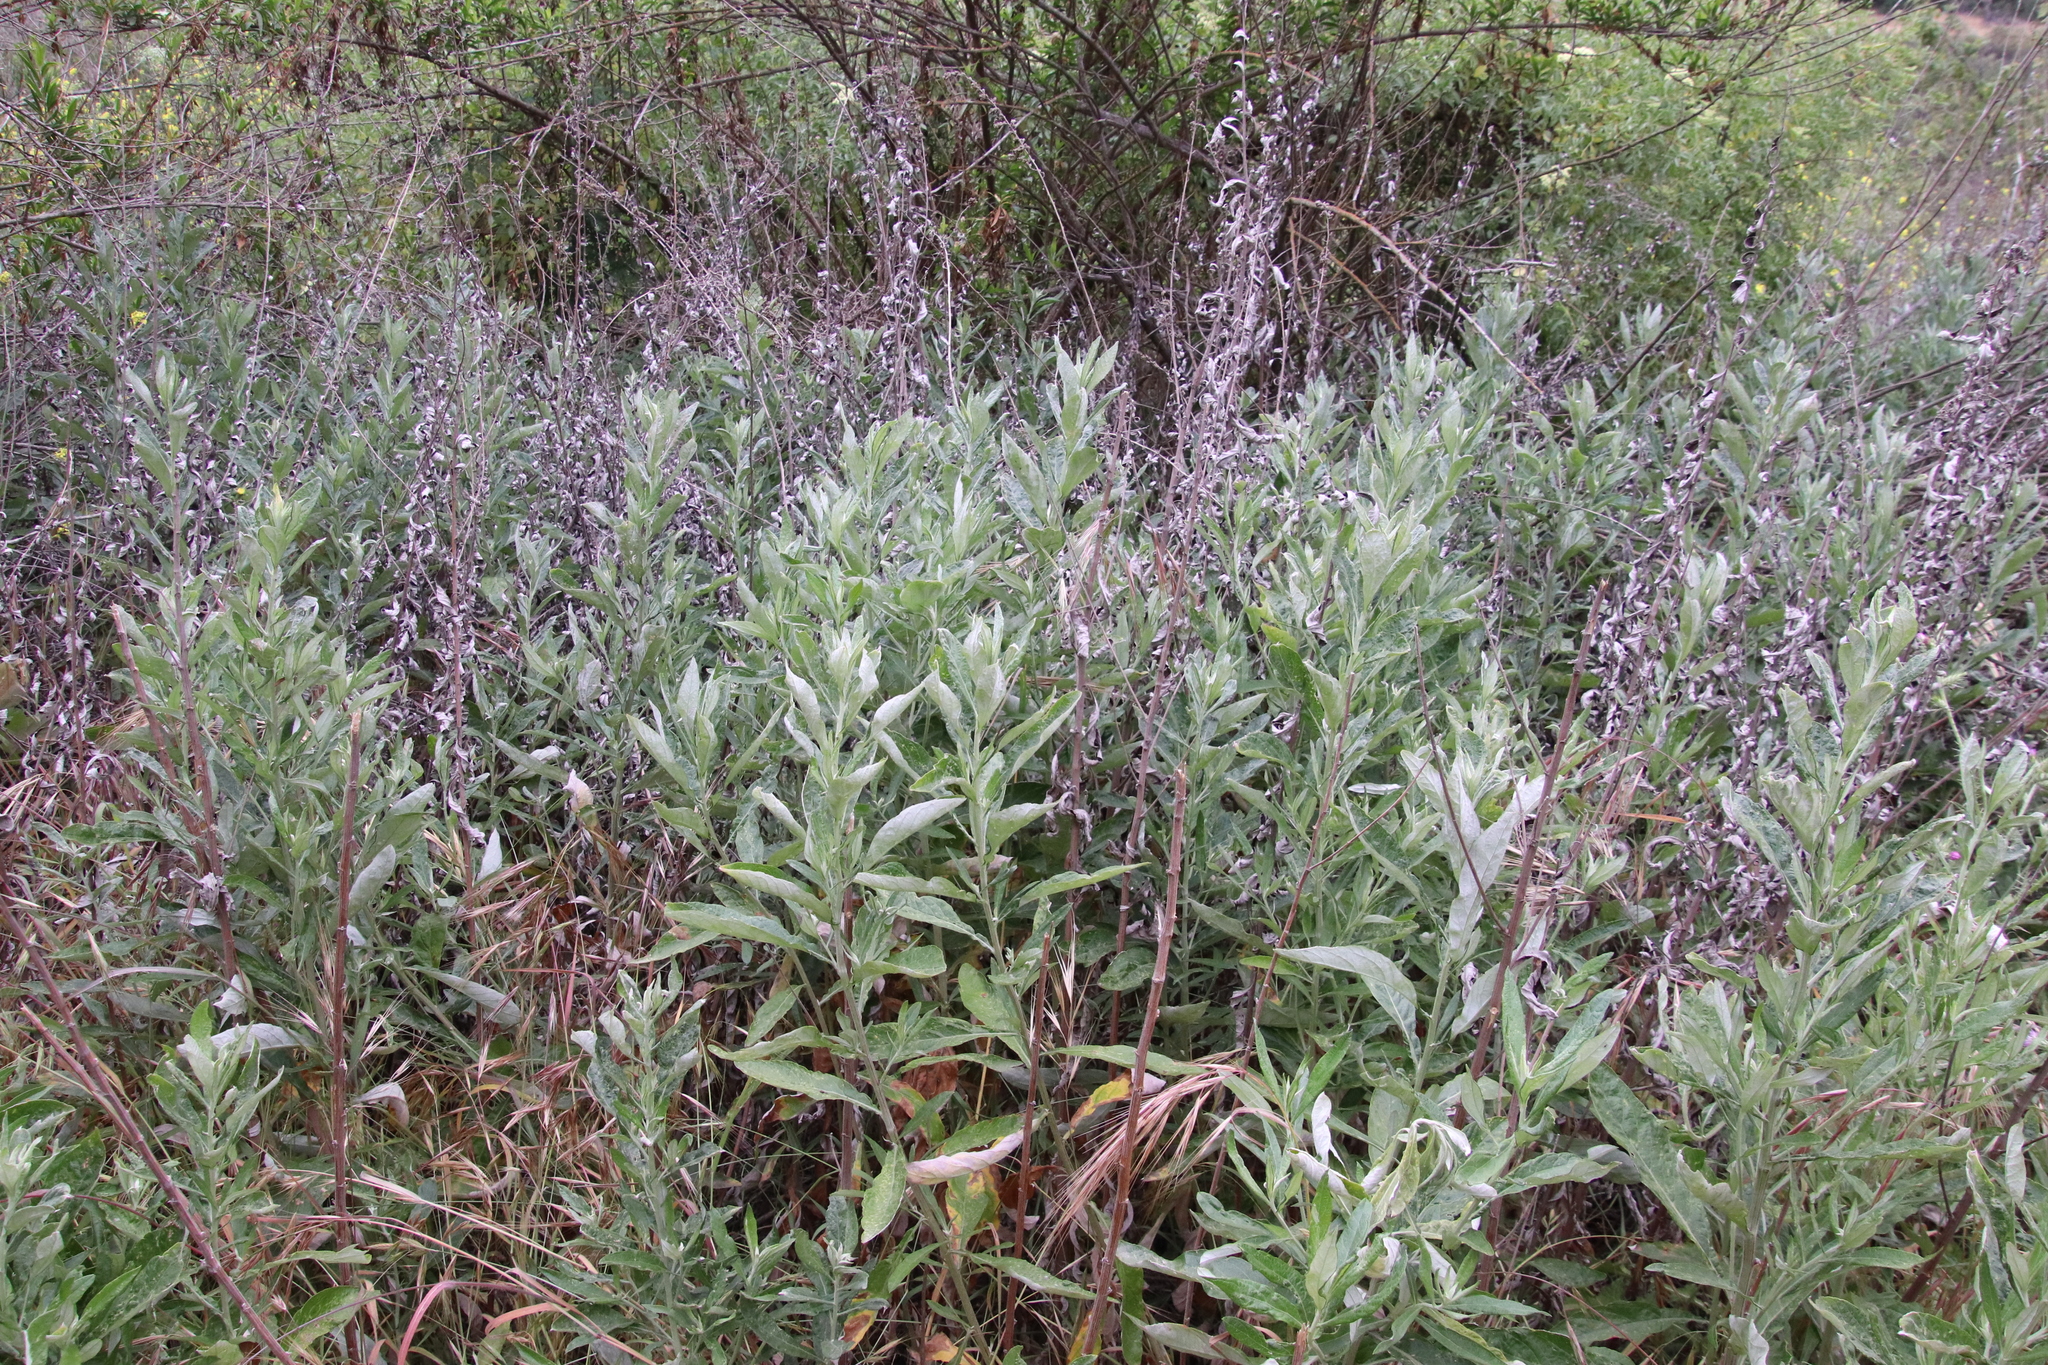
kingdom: Plantae
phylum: Tracheophyta
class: Magnoliopsida
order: Asterales
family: Asteraceae
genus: Artemisia
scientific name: Artemisia douglasiana
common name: Northwest mugwort
